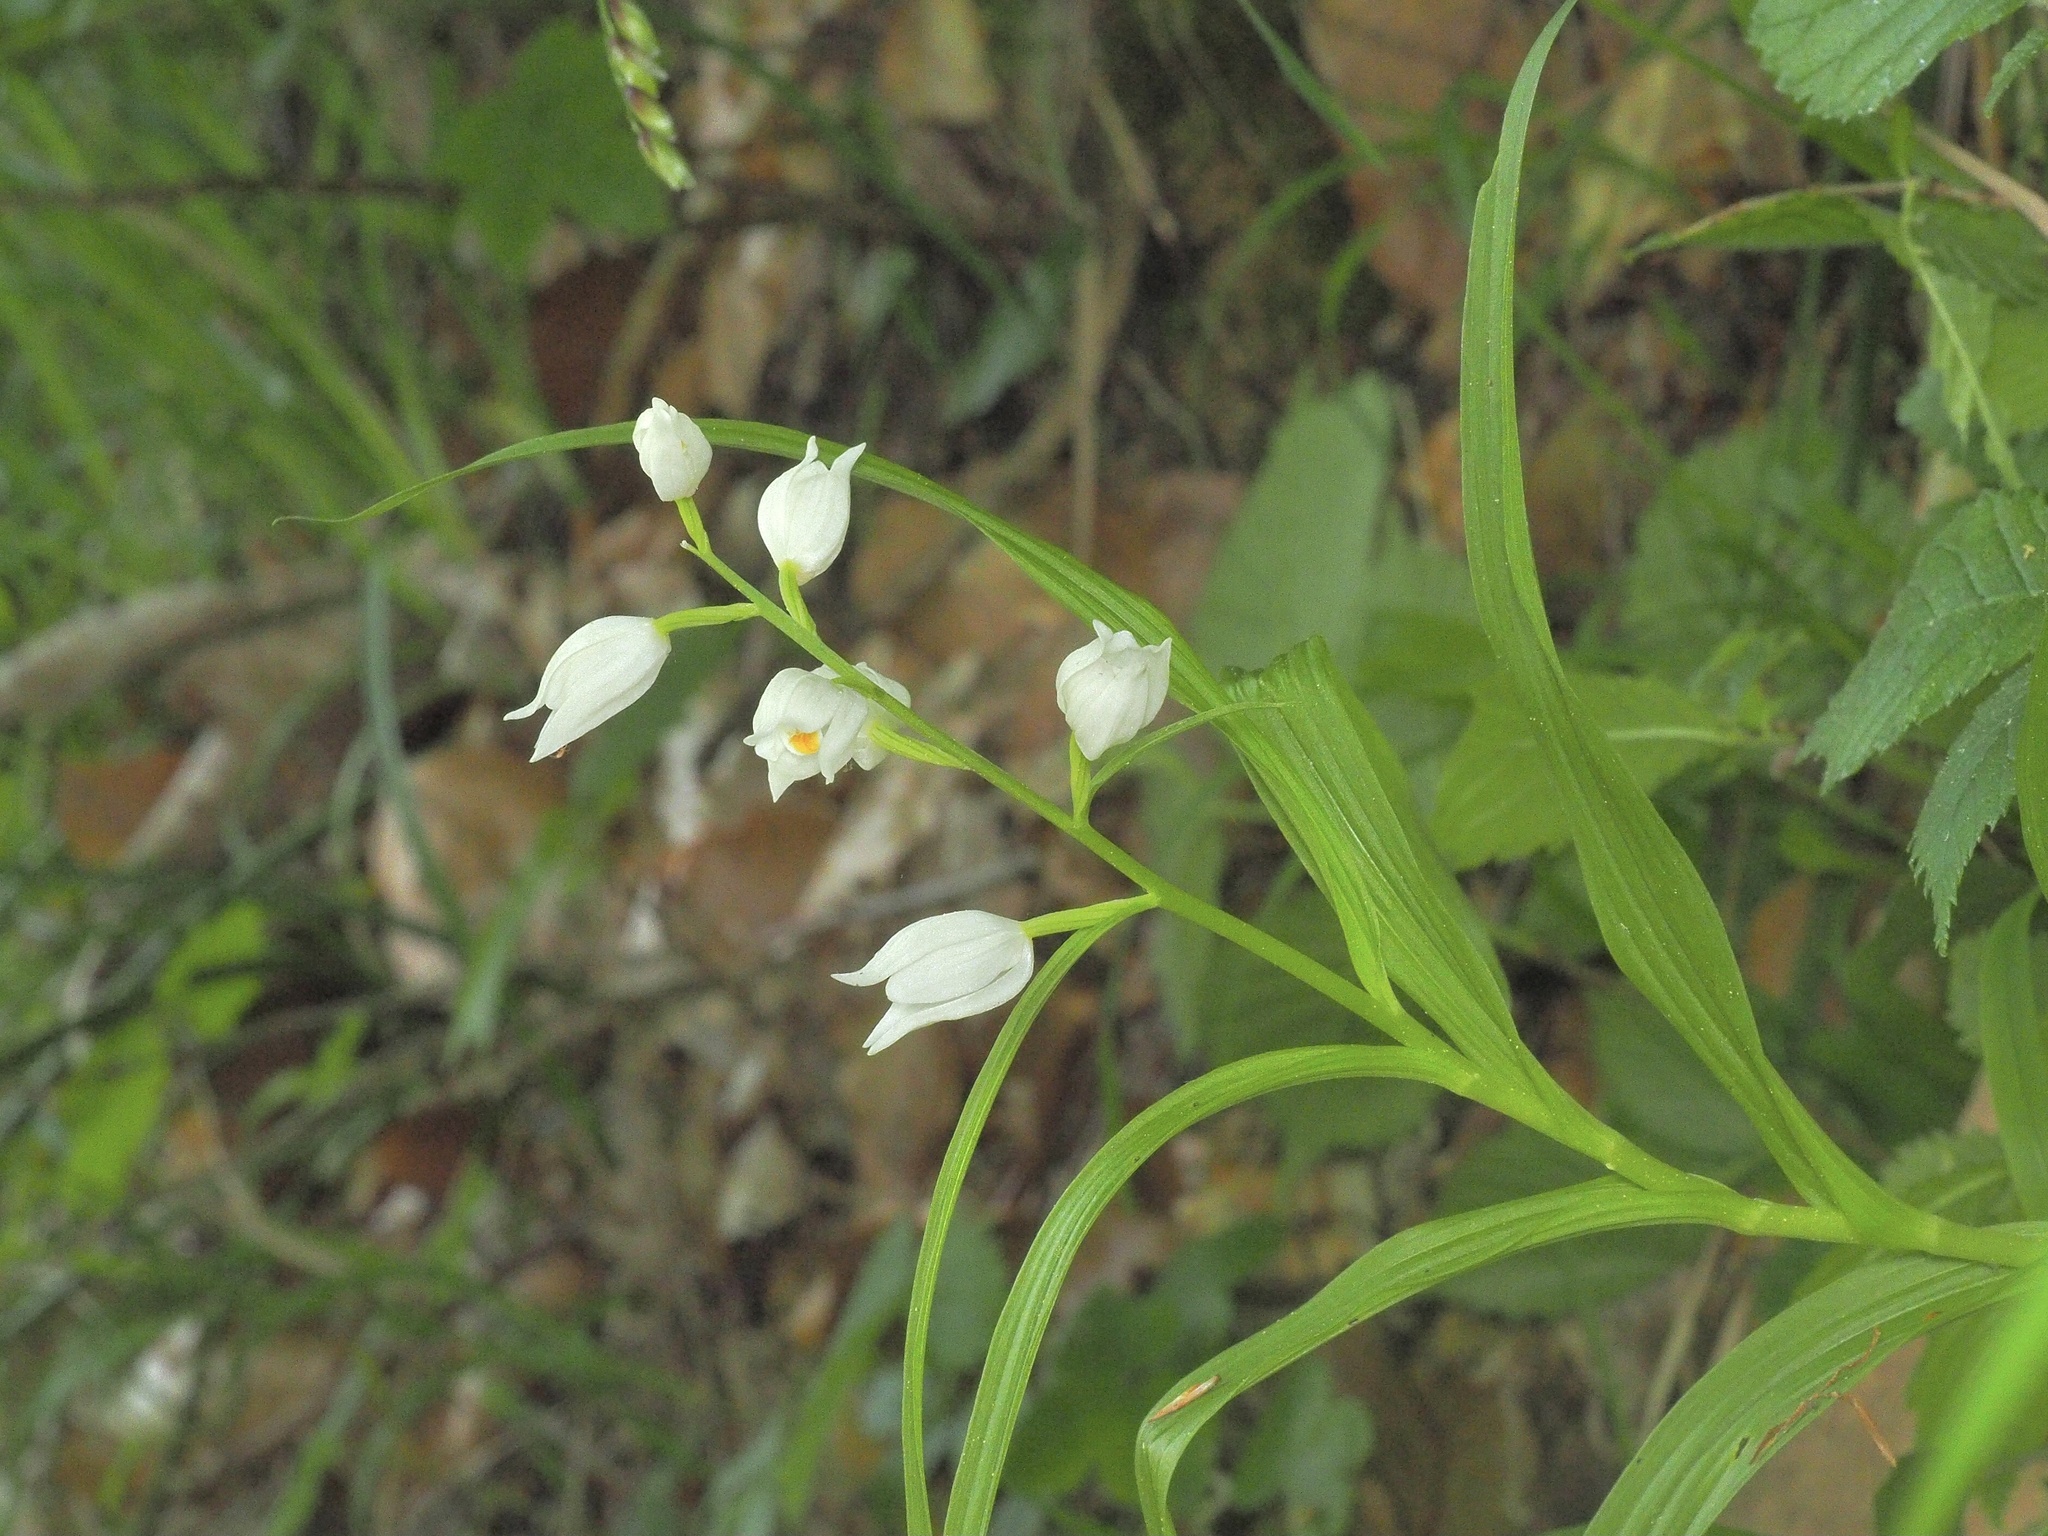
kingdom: Plantae
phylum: Tracheophyta
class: Liliopsida
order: Asparagales
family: Orchidaceae
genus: Cephalanthera
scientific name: Cephalanthera longifolia
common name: Narrow-leaved helleborine
